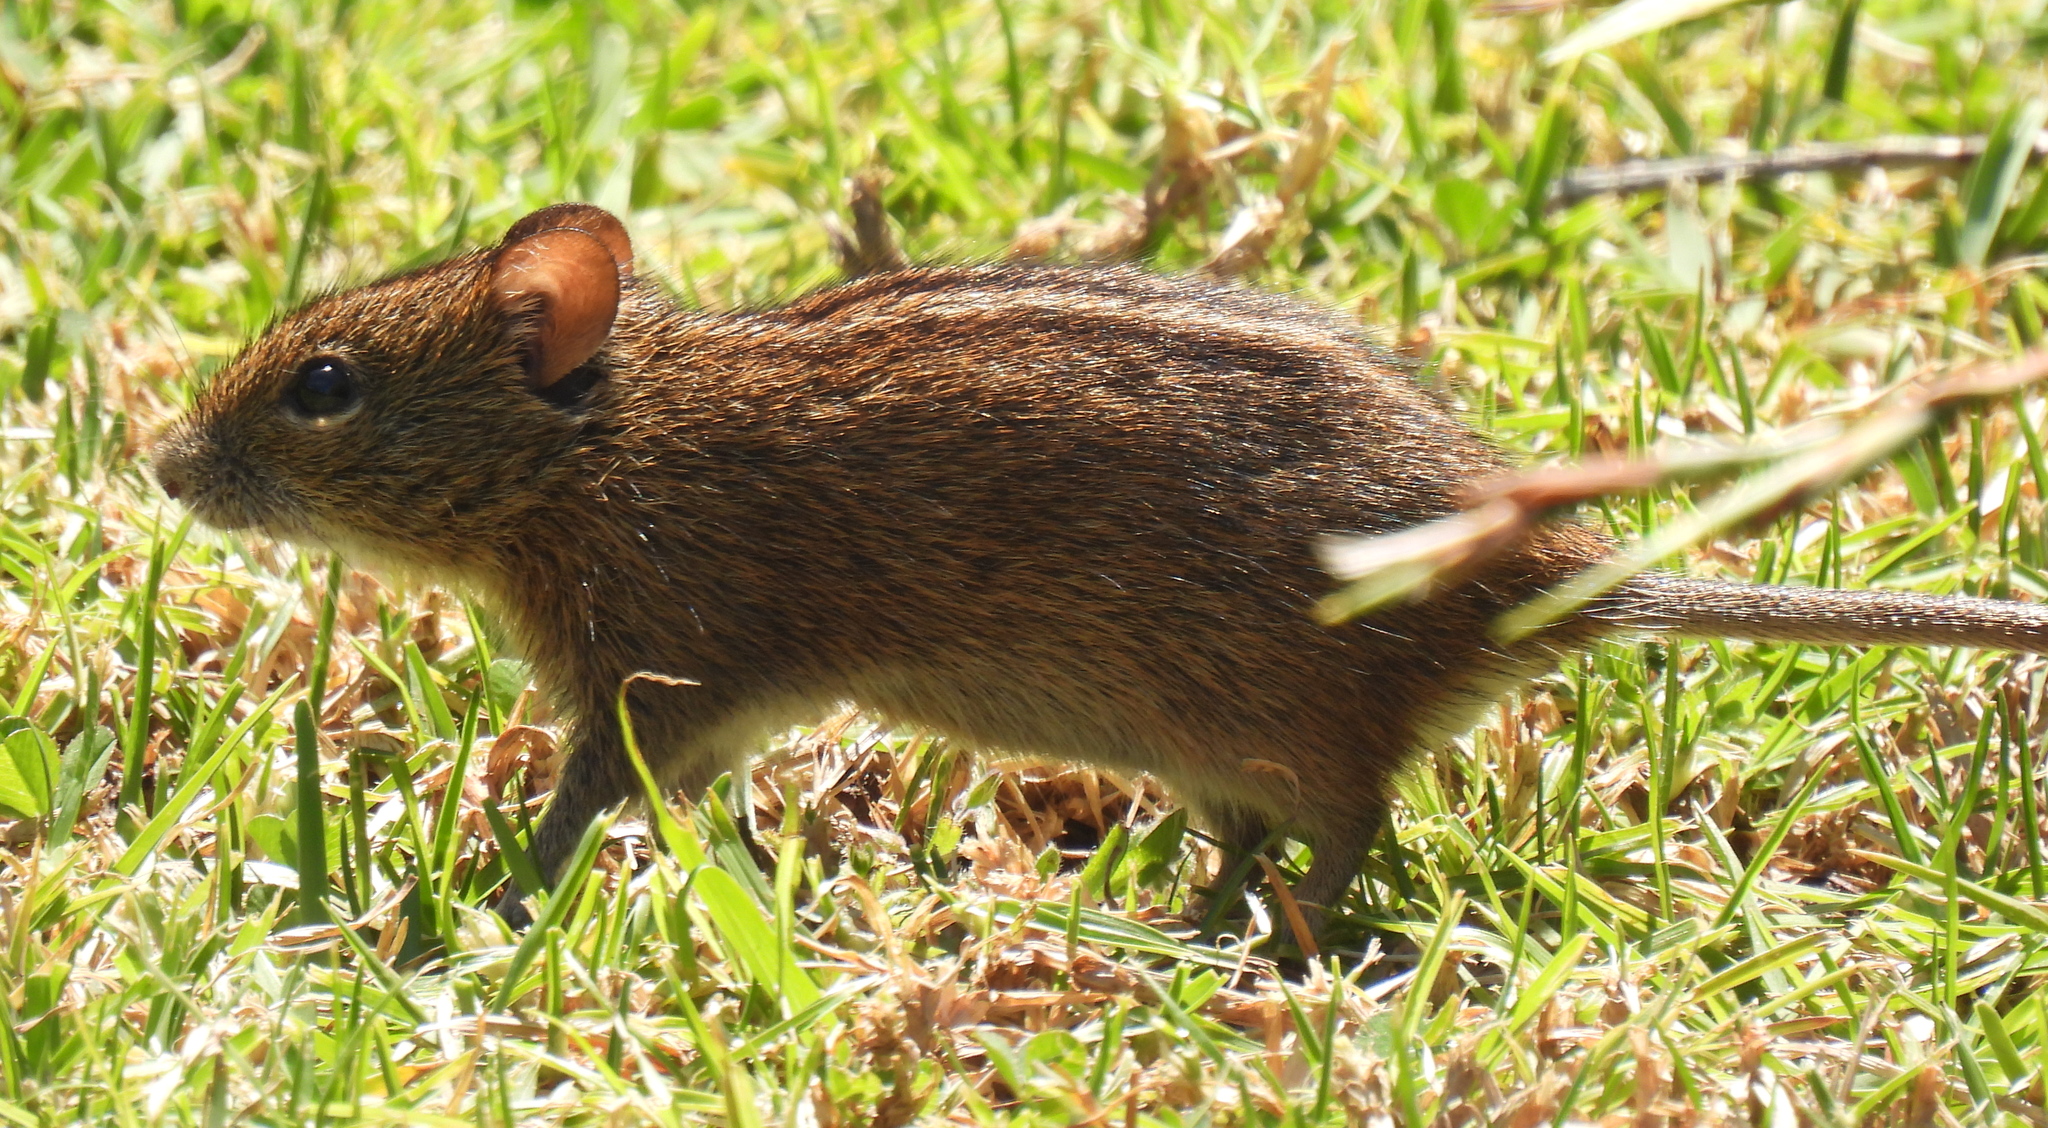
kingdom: Animalia
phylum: Chordata
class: Mammalia
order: Rodentia
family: Muridae
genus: Rhabdomys
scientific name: Rhabdomys pumilio
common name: Xeric four-striped grass rat
